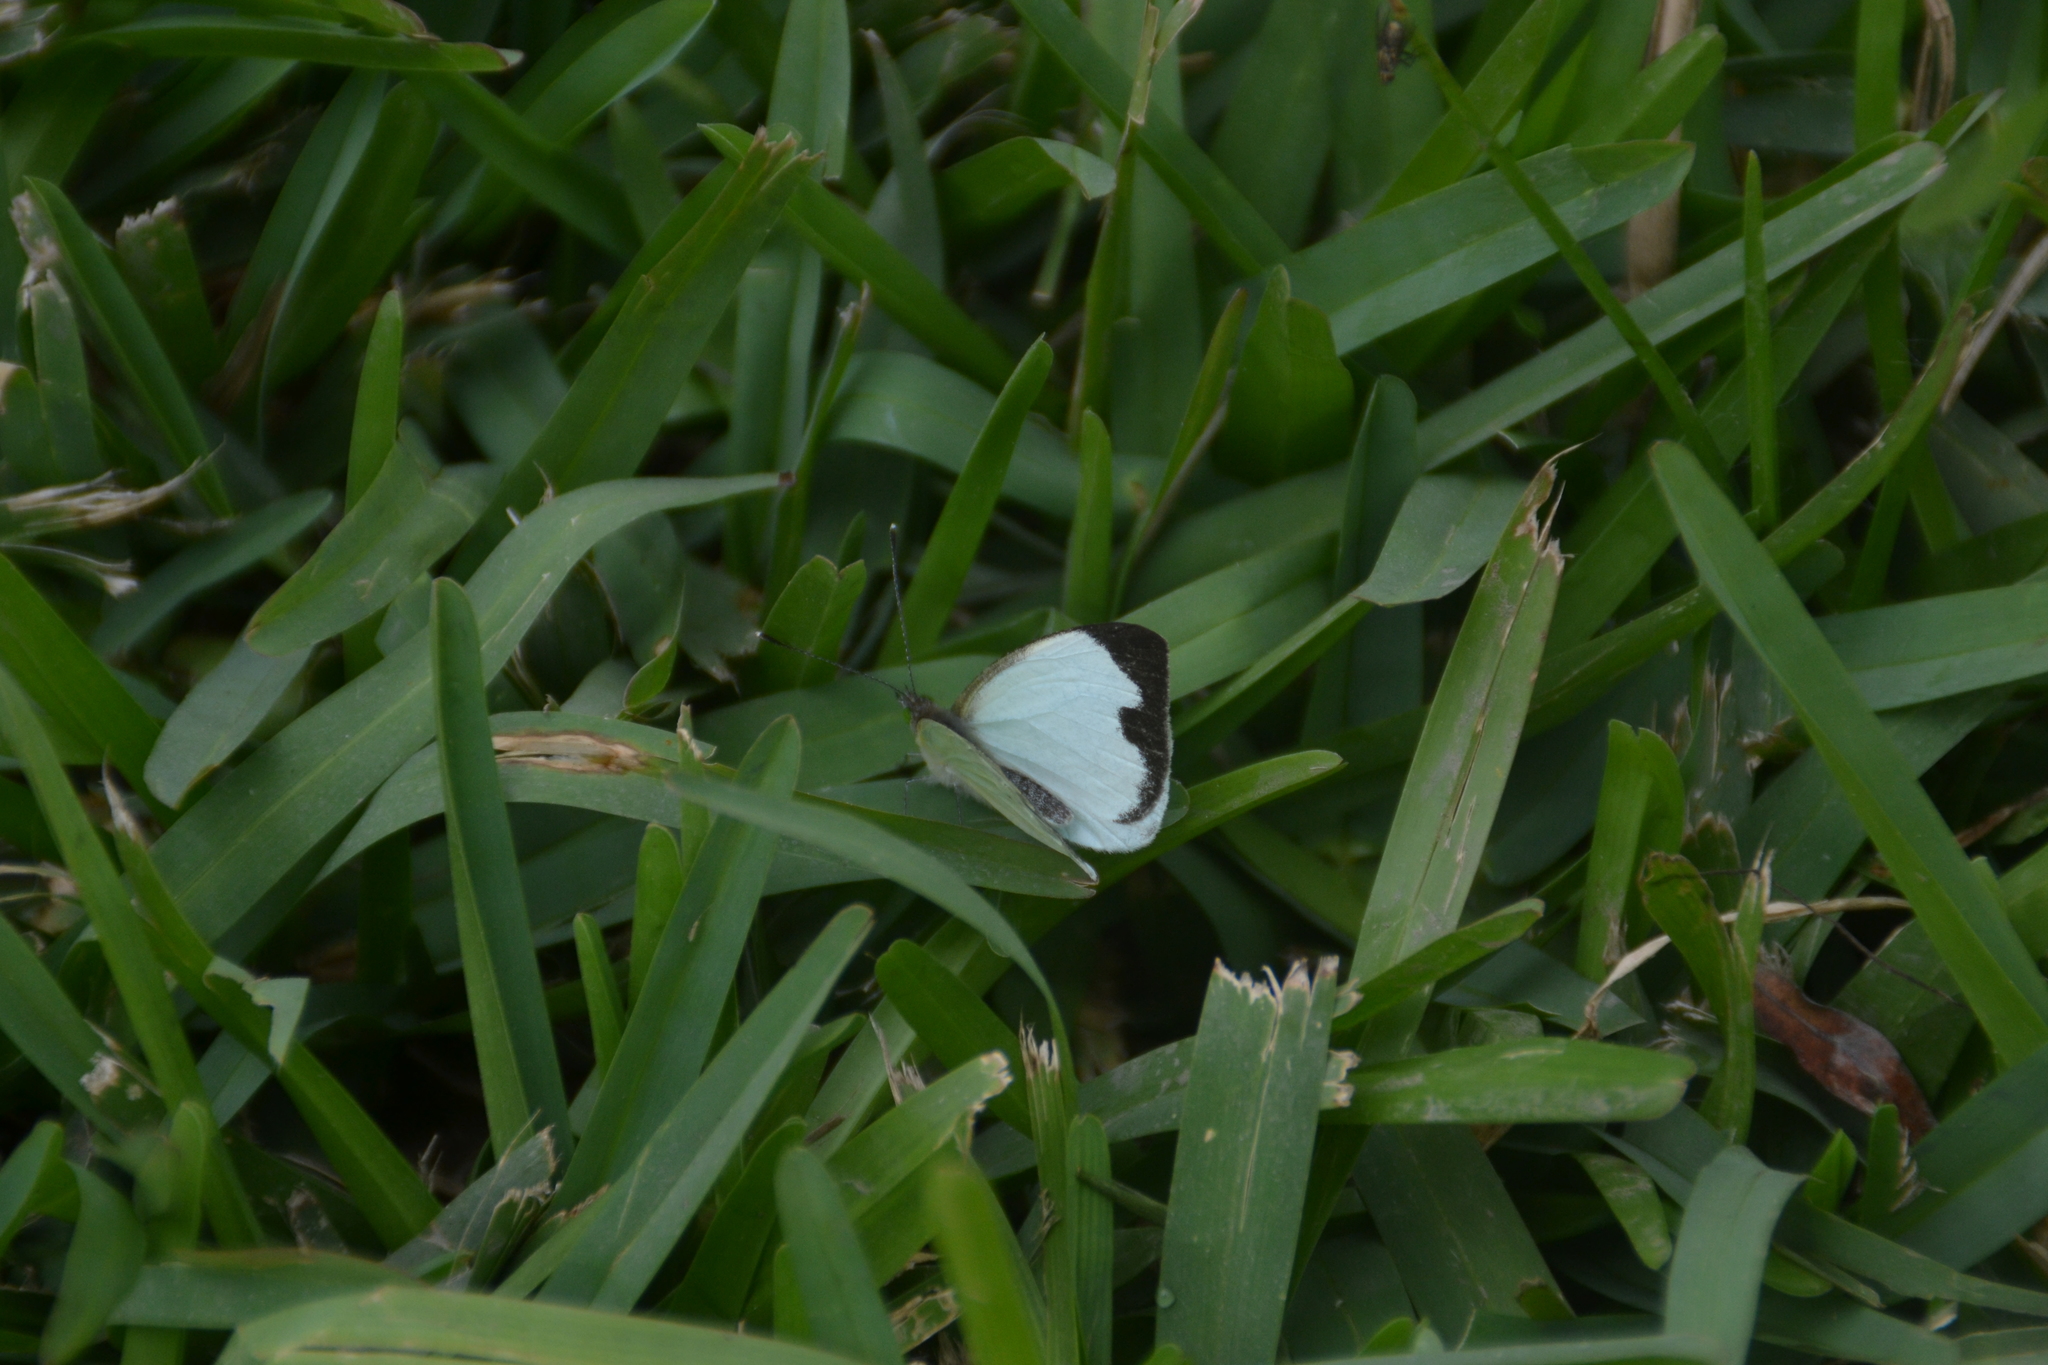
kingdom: Animalia
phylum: Arthropoda
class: Insecta
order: Lepidoptera
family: Pieridae
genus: Leptophobia
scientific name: Leptophobia aripa
